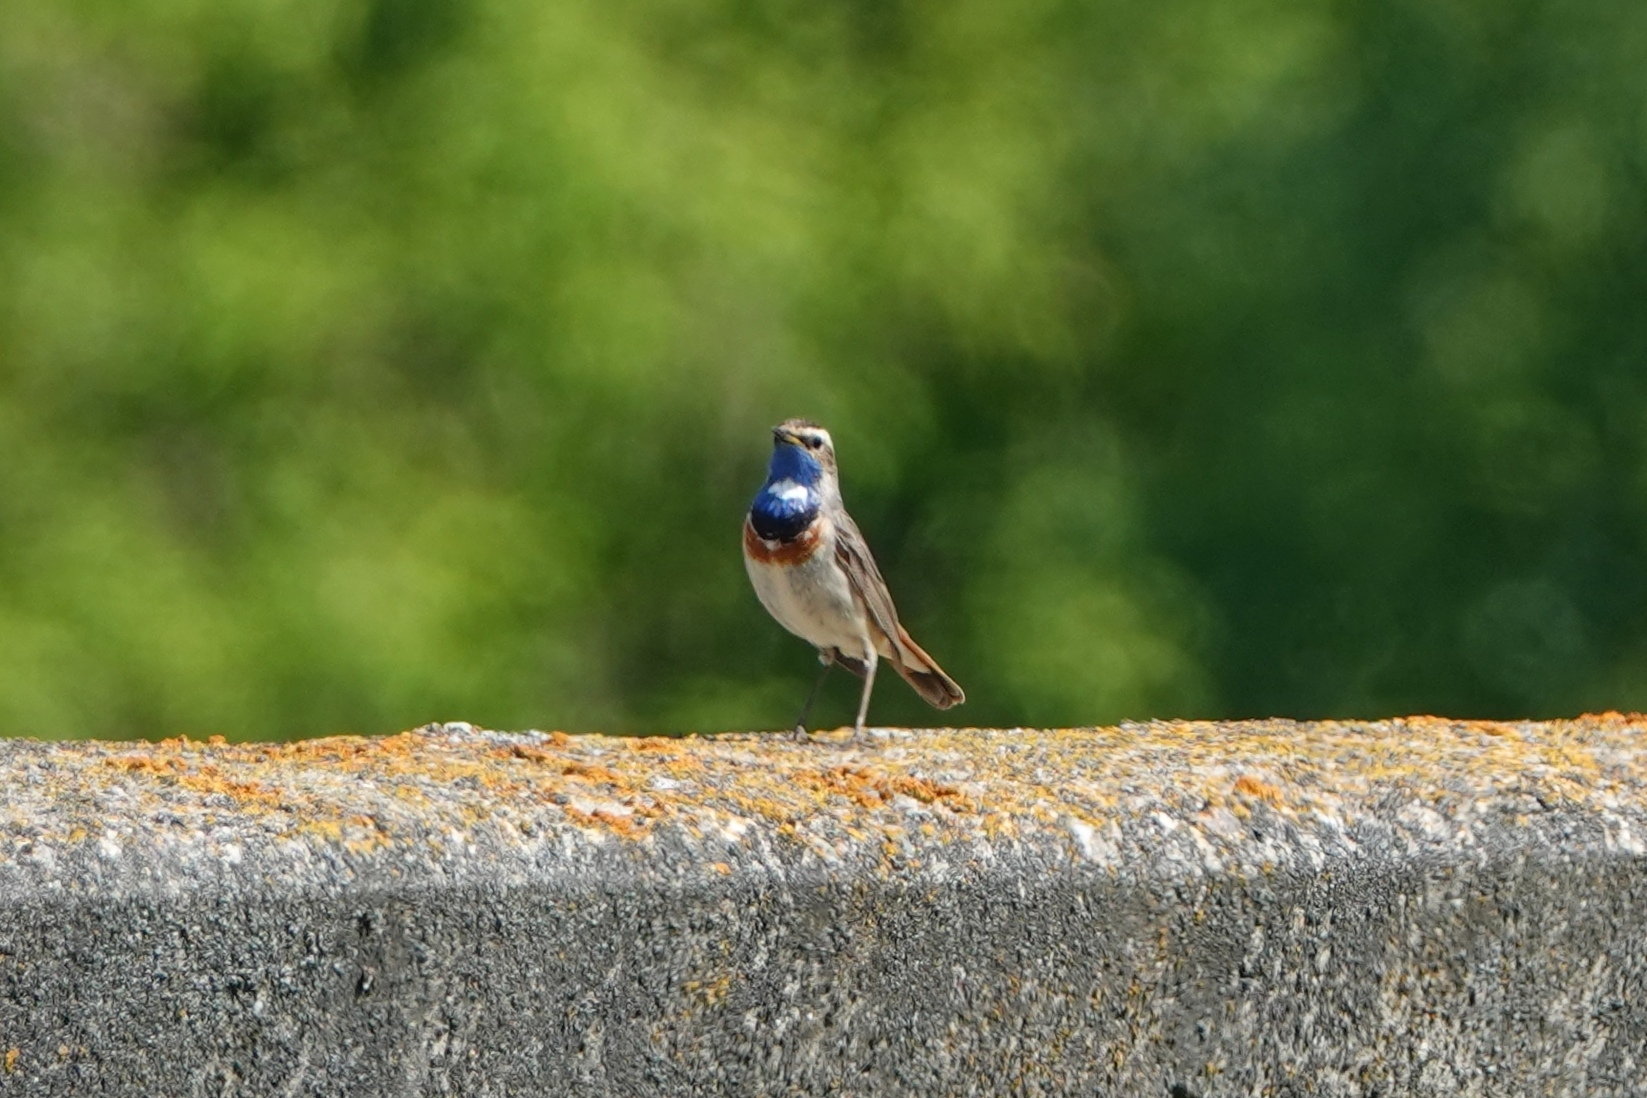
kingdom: Animalia
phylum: Chordata
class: Aves
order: Passeriformes
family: Muscicapidae
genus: Luscinia
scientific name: Luscinia svecica
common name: Bluethroat
